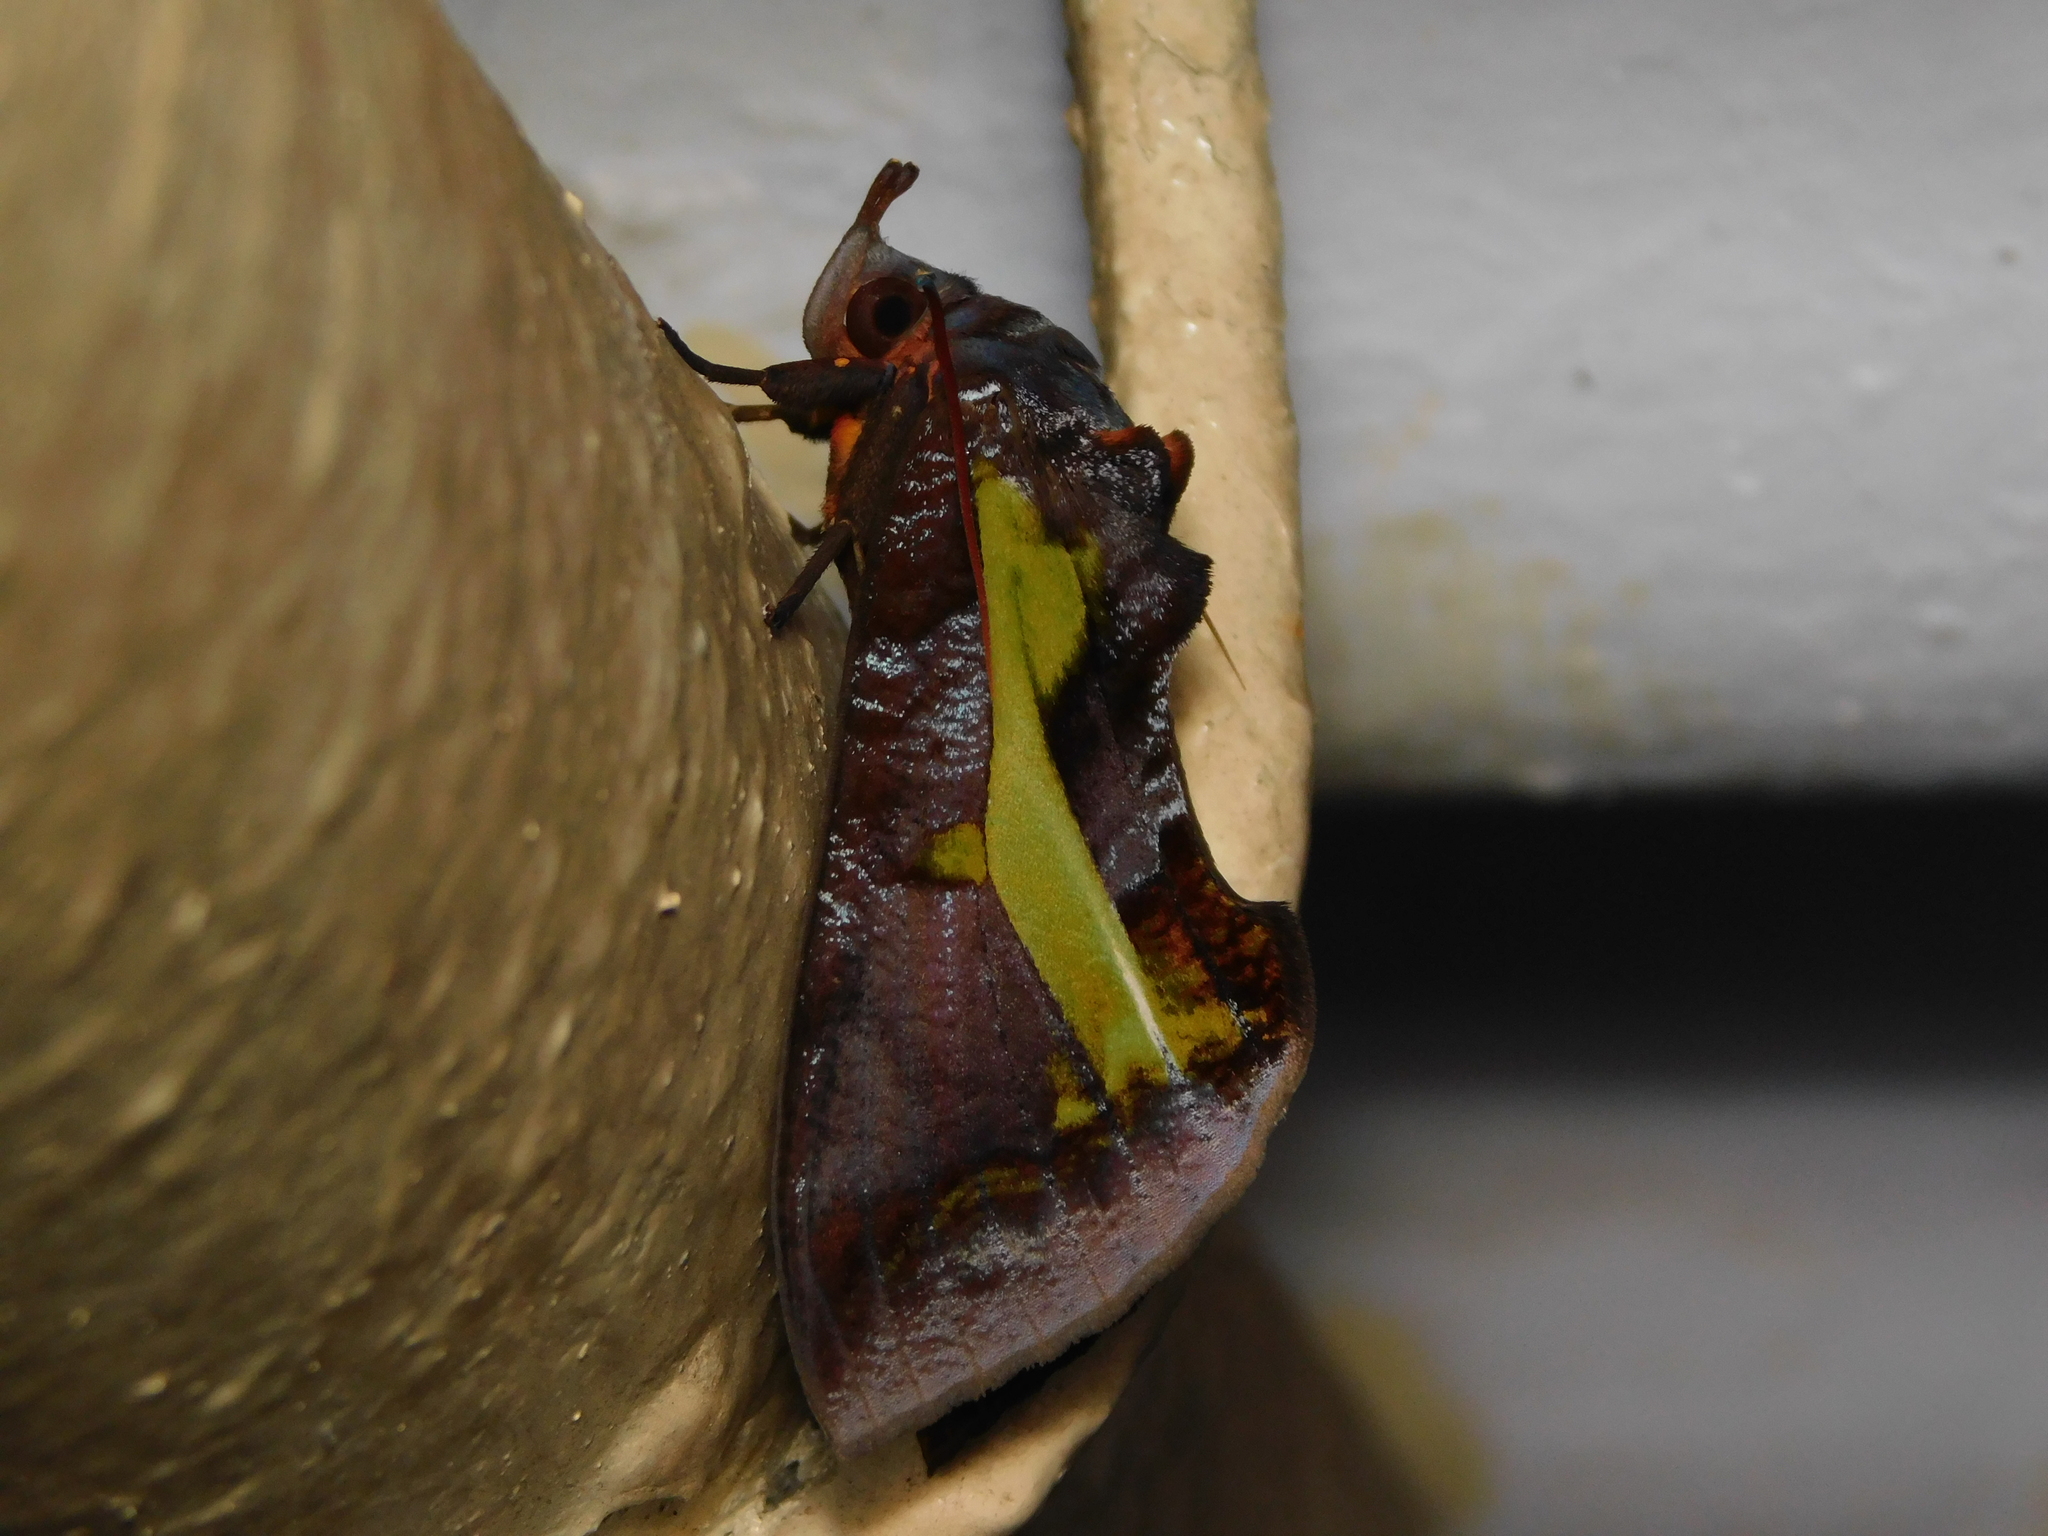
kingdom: Animalia
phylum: Arthropoda
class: Insecta
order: Lepidoptera
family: Erebidae
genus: Eudocima
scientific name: Eudocima homaena
